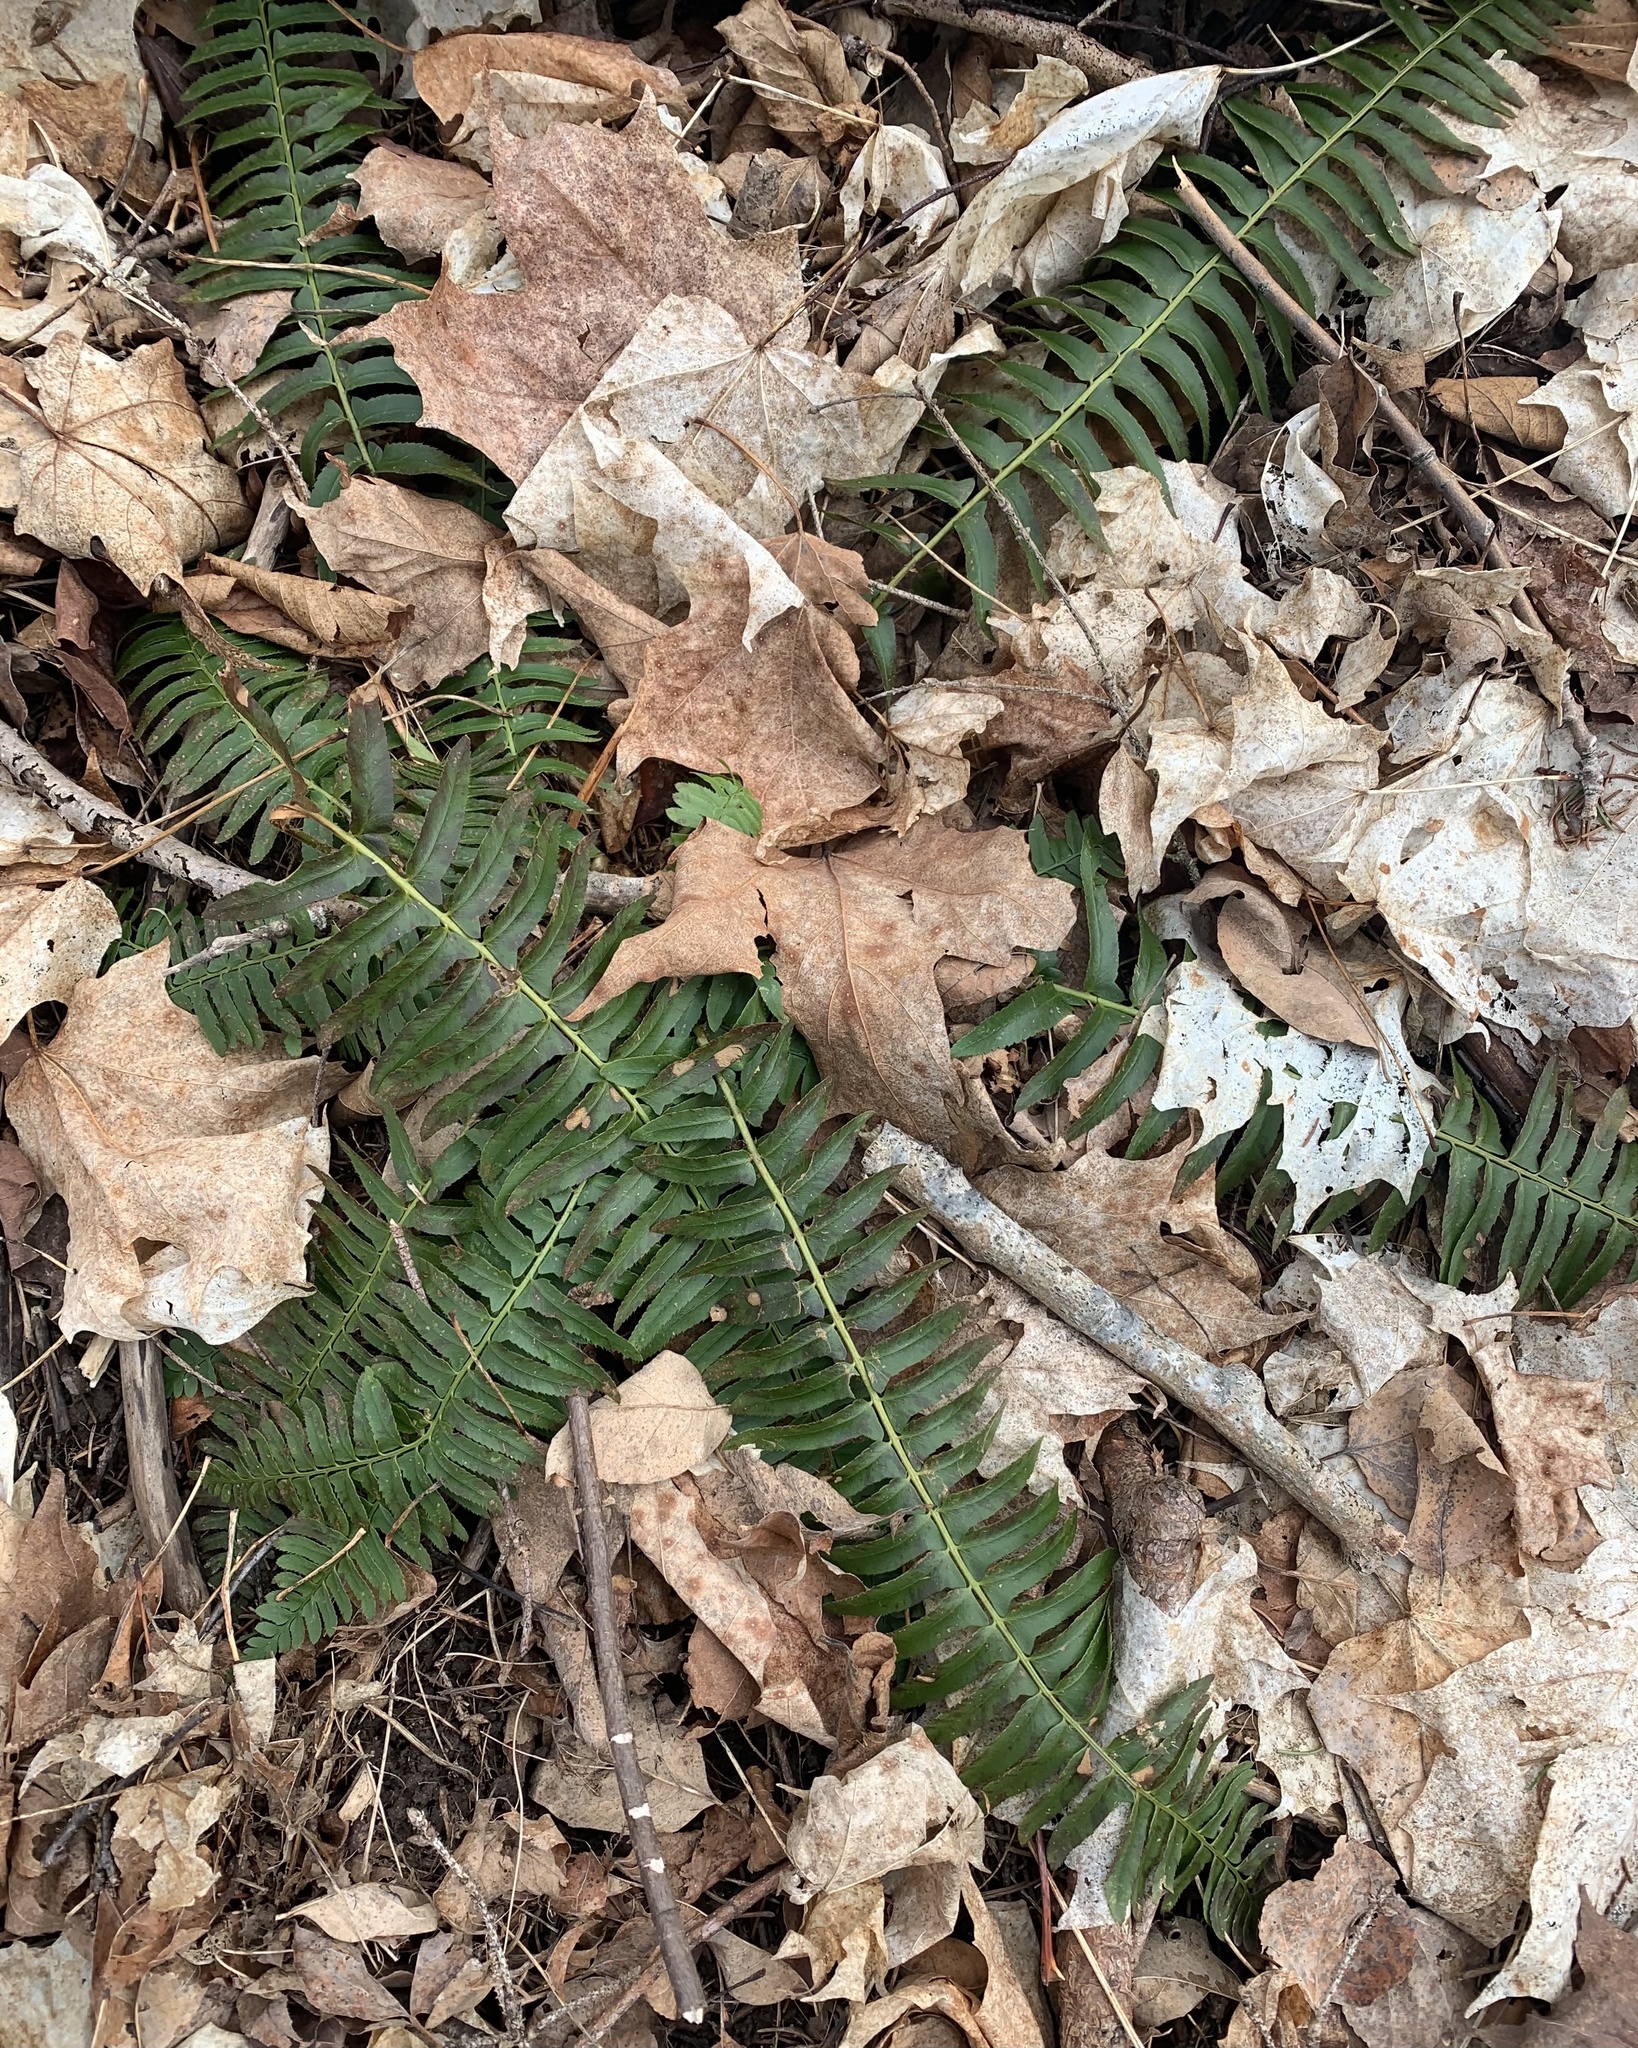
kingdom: Plantae
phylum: Tracheophyta
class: Polypodiopsida
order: Polypodiales
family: Dryopteridaceae
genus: Polystichum
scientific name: Polystichum acrostichoides
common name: Christmas fern
